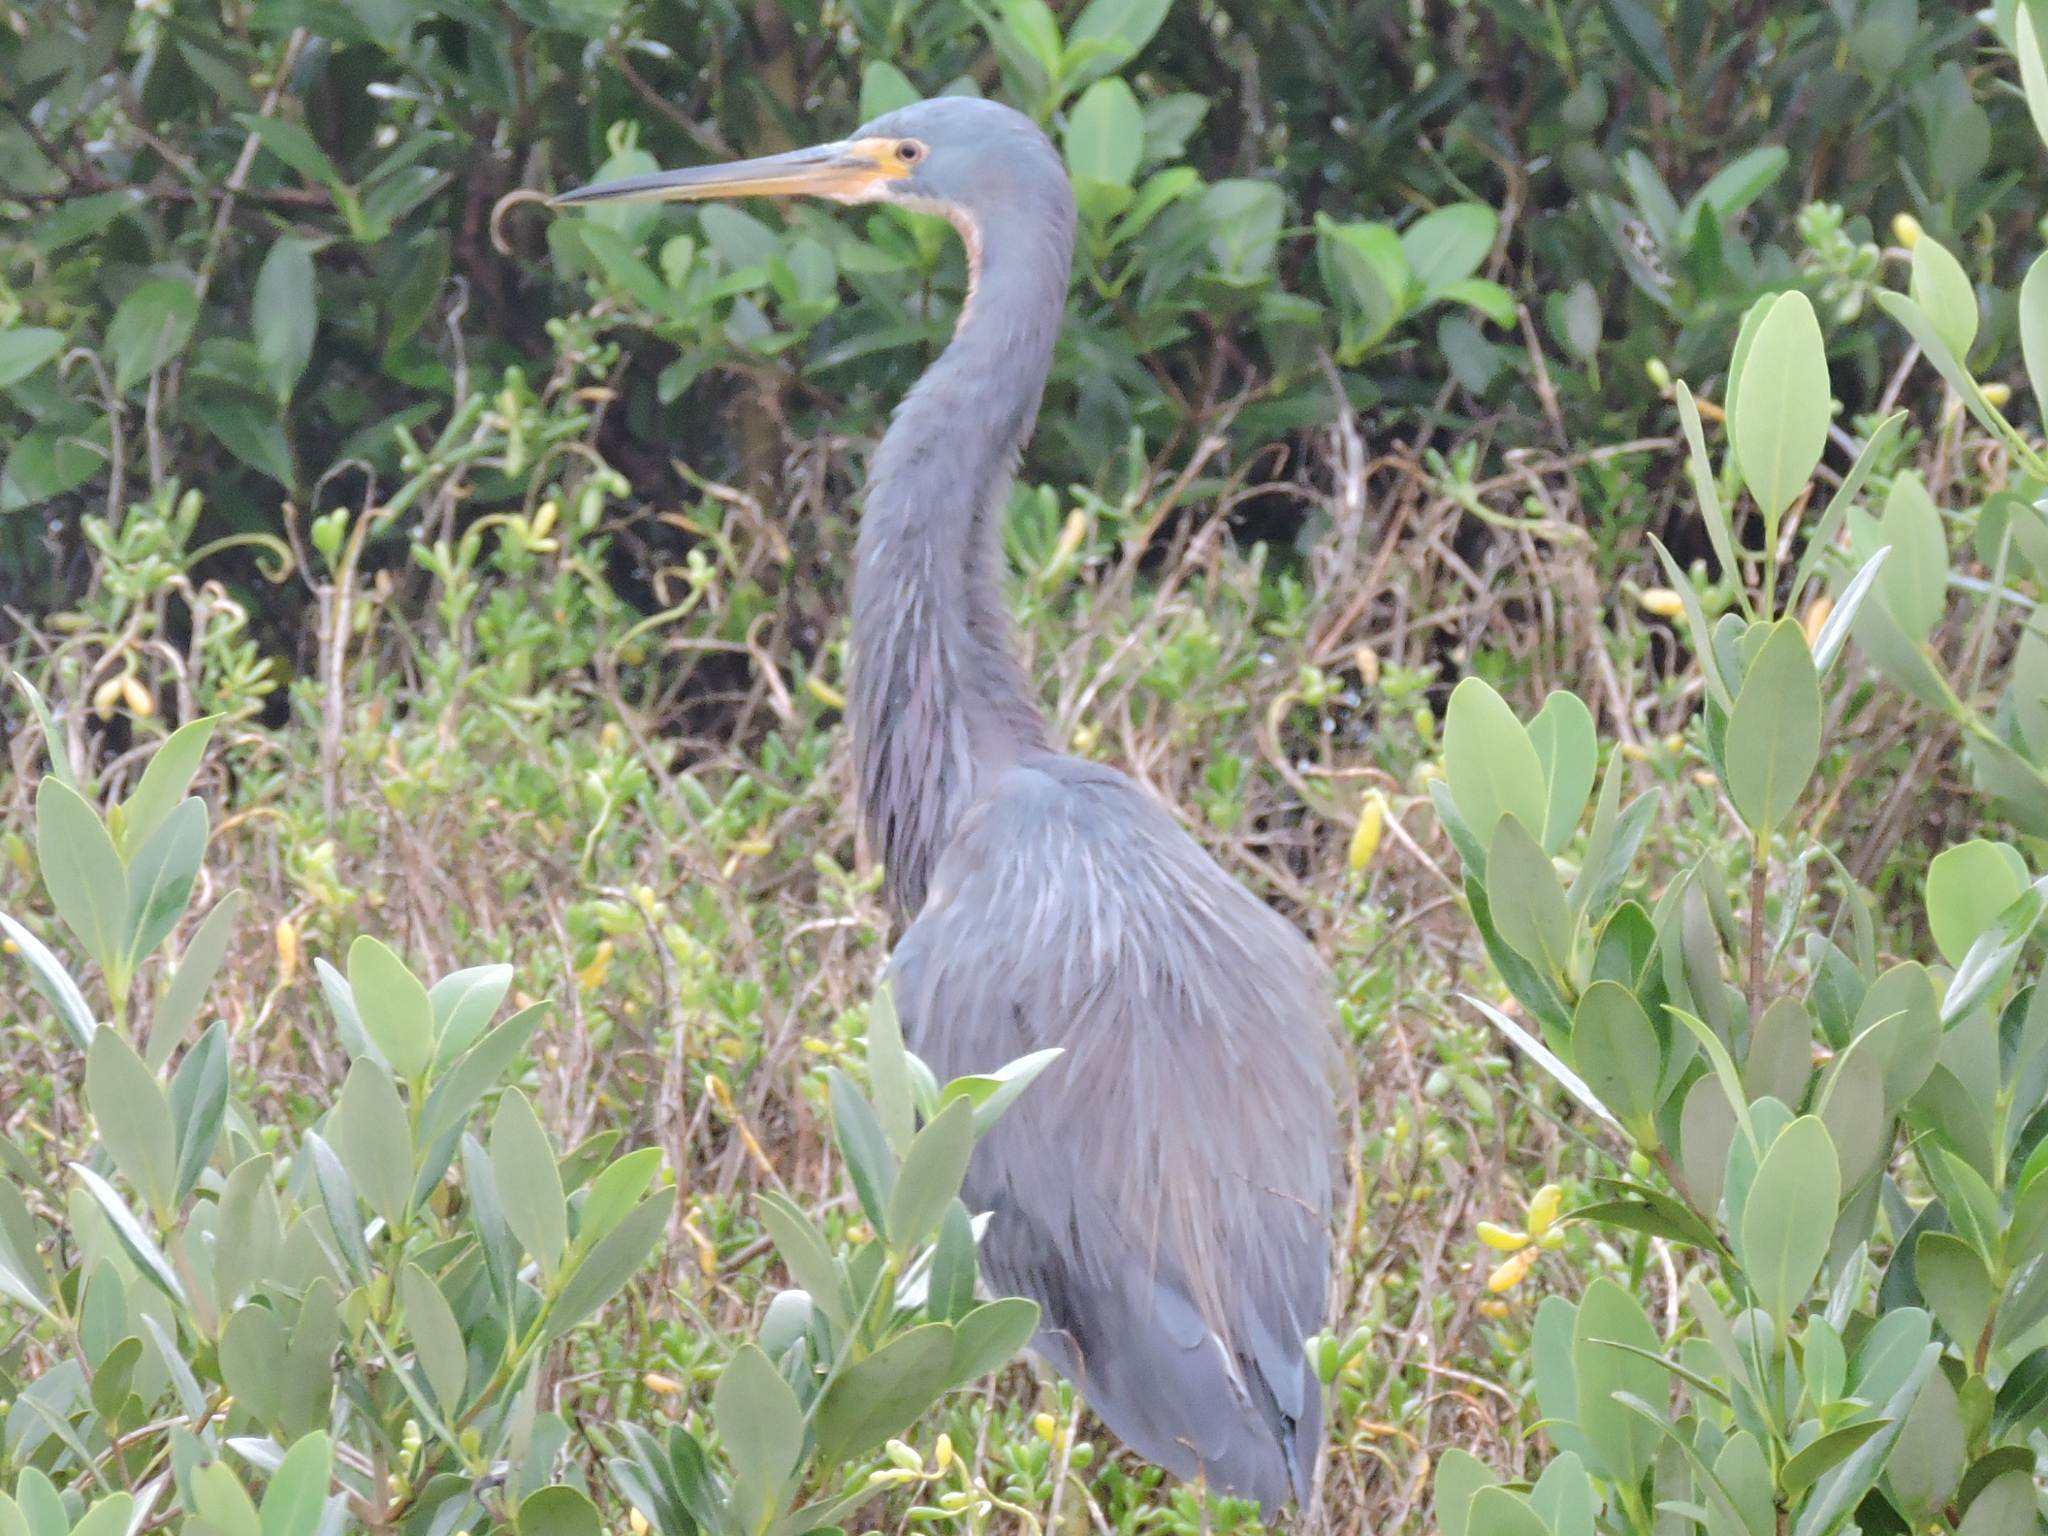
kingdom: Animalia
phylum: Chordata
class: Aves
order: Pelecaniformes
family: Ardeidae
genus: Egretta
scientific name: Egretta tricolor
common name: Tricolored heron
